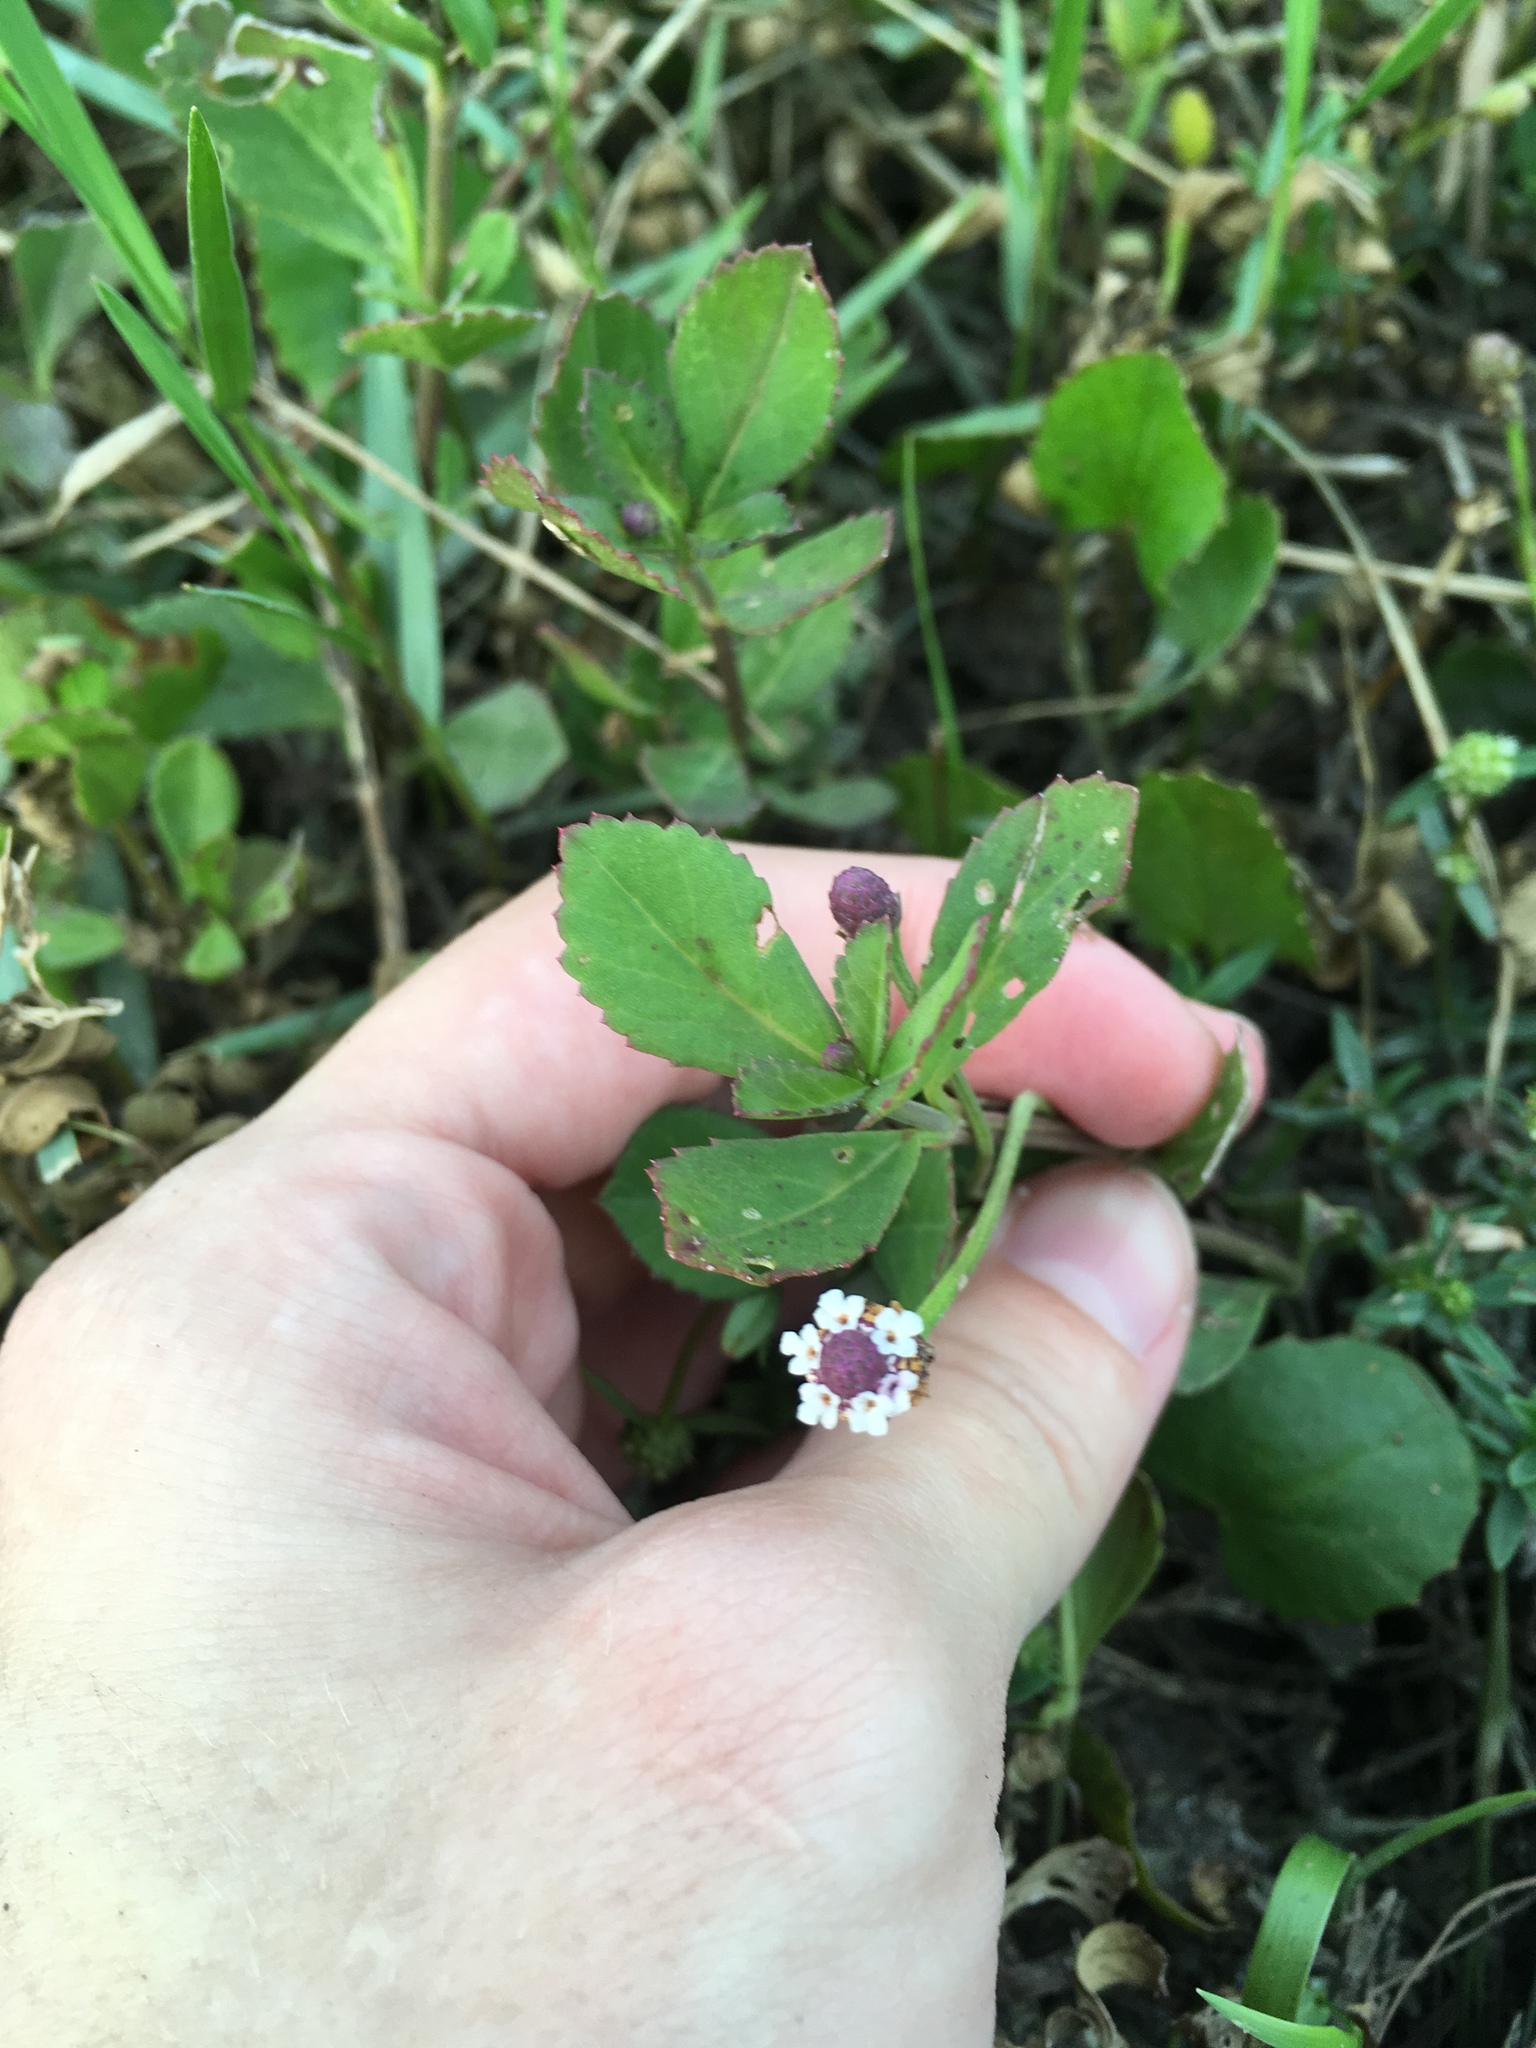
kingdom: Plantae
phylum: Tracheophyta
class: Magnoliopsida
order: Lamiales
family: Verbenaceae
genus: Phyla
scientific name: Phyla nodiflora
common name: Frogfruit
